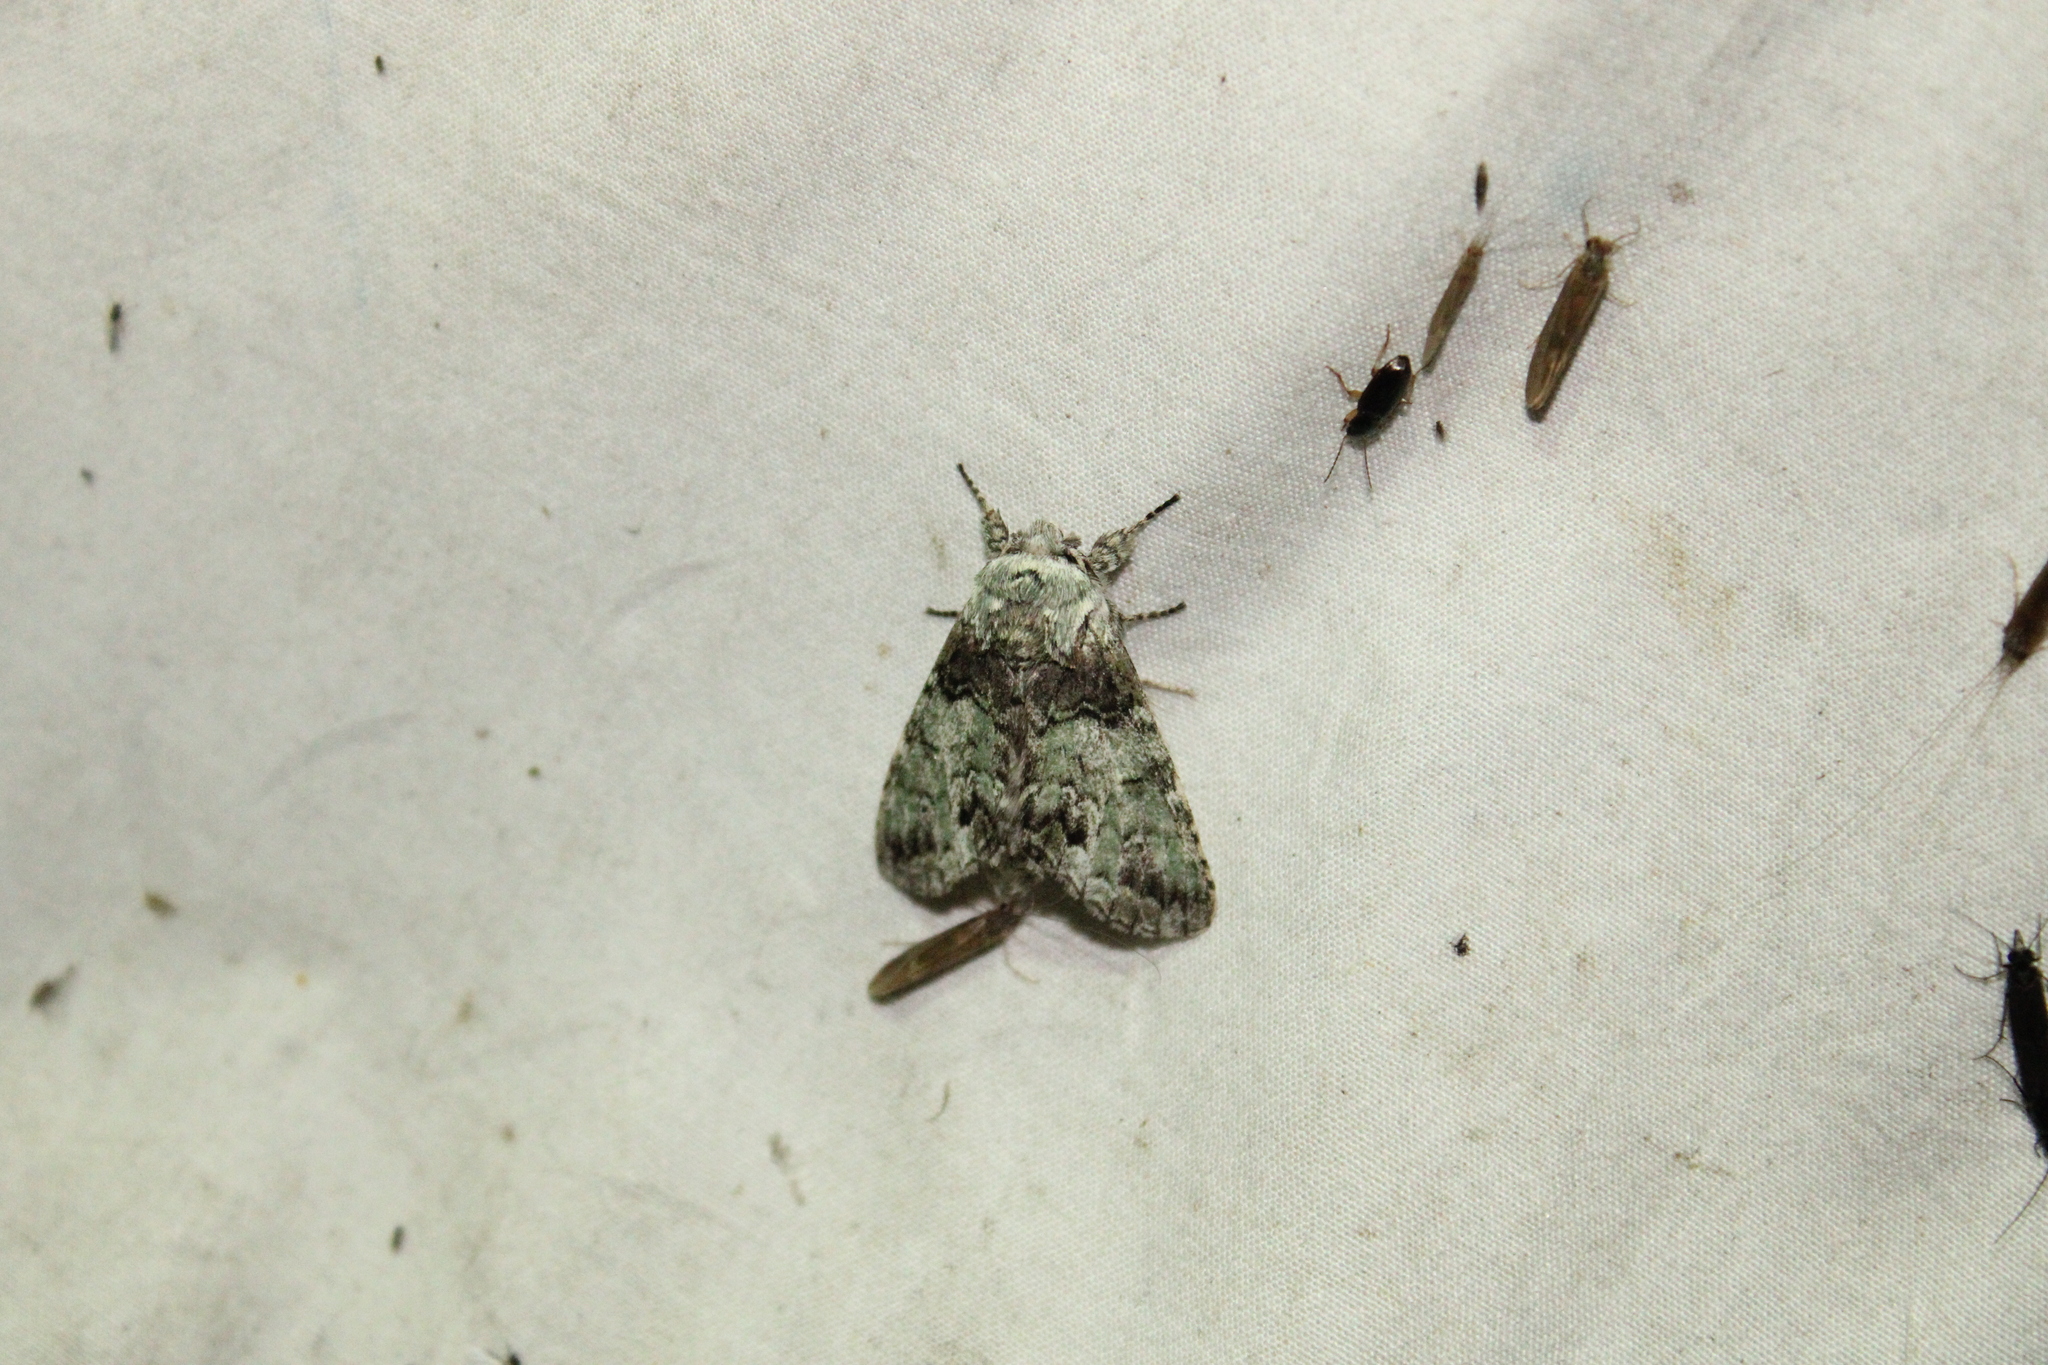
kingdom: Animalia
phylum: Arthropoda
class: Insecta
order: Lepidoptera
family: Notodontidae
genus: Macrurocampa
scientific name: Macrurocampa marthesia
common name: Mottled prominent
